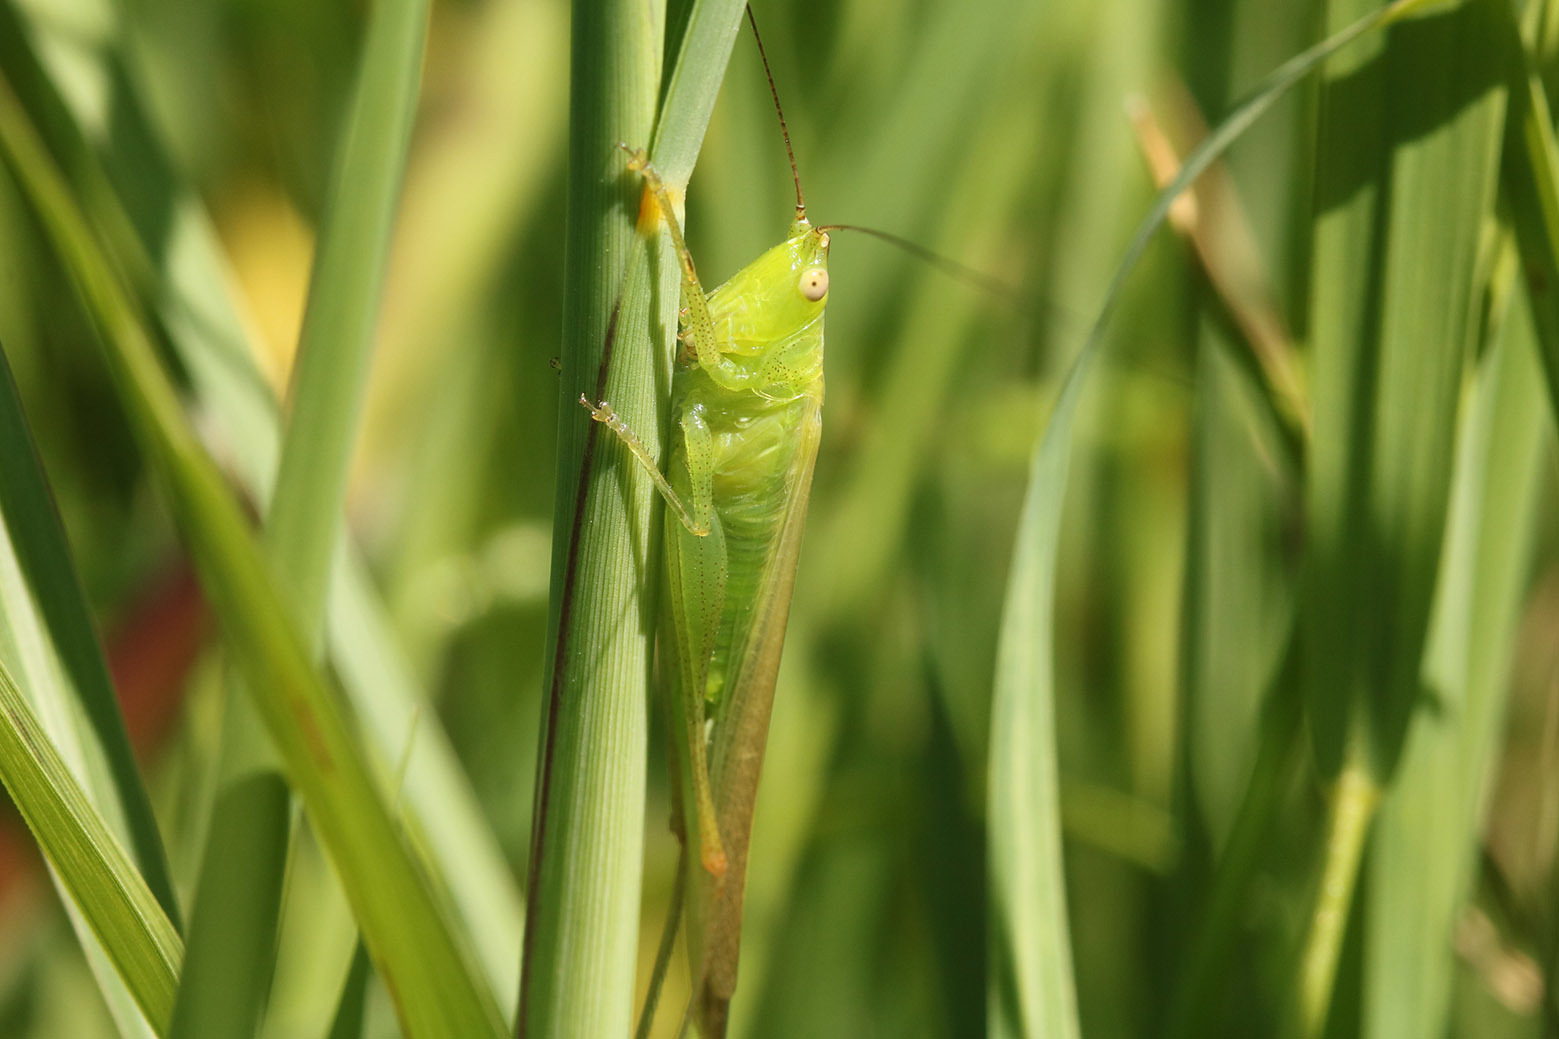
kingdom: Animalia
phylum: Arthropoda
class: Insecta
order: Orthoptera
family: Tettigoniidae
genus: Conocephalus
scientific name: Conocephalus longipes
